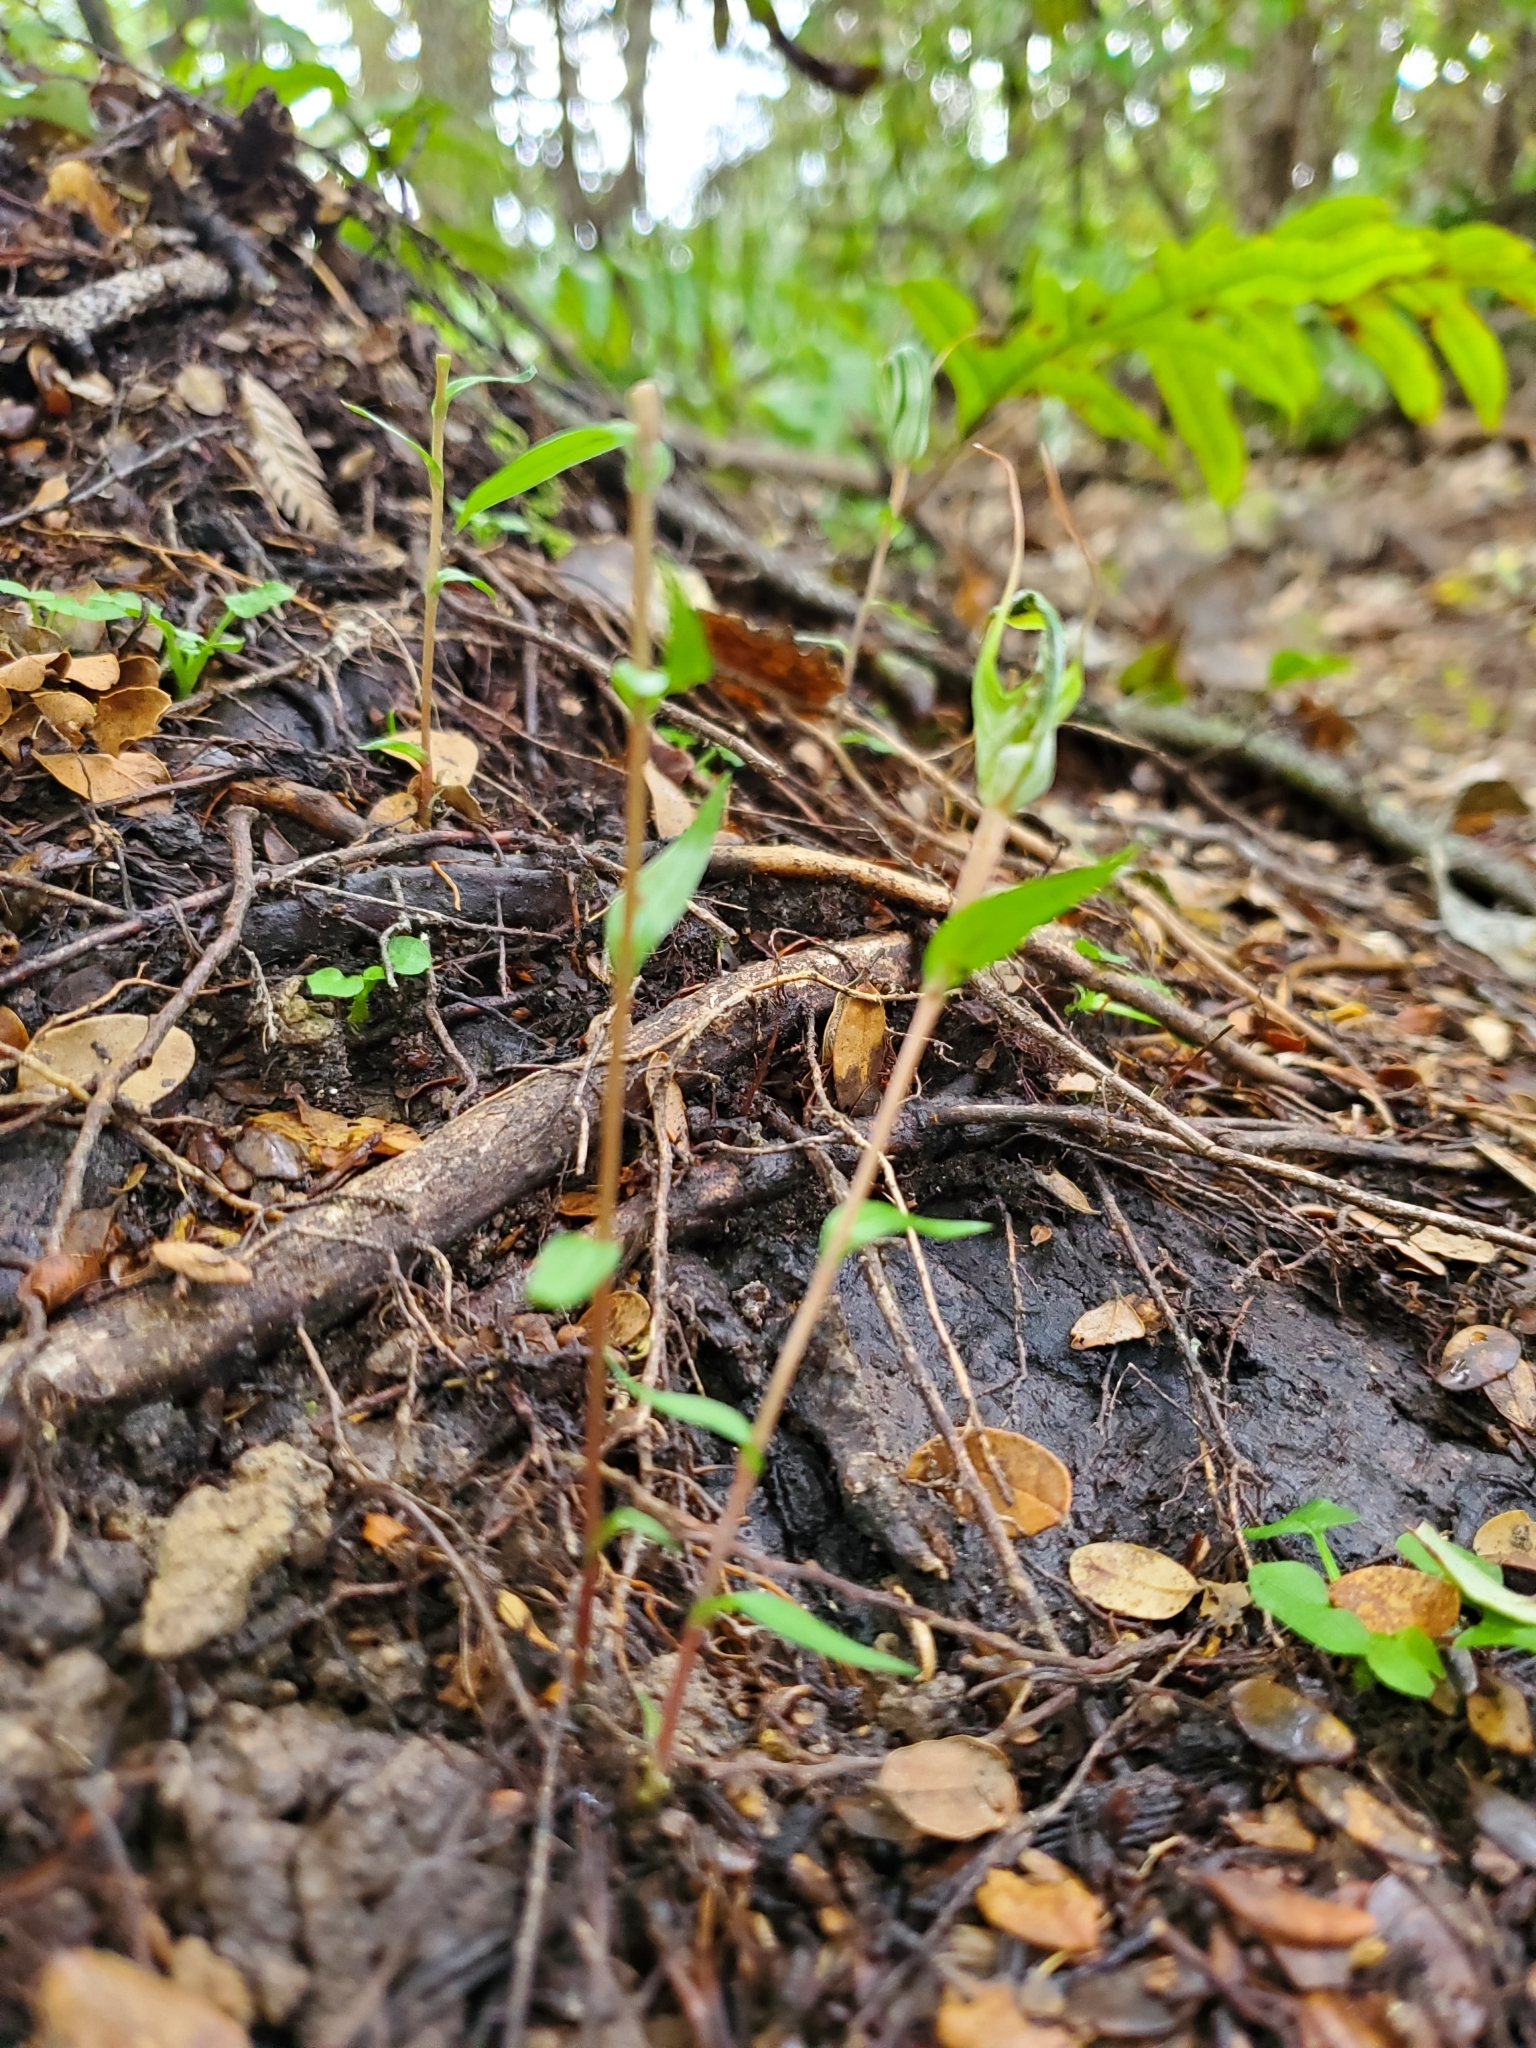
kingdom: Plantae
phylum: Tracheophyta
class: Liliopsida
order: Asparagales
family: Orchidaceae
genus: Pterostylis
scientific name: Pterostylis alobula
